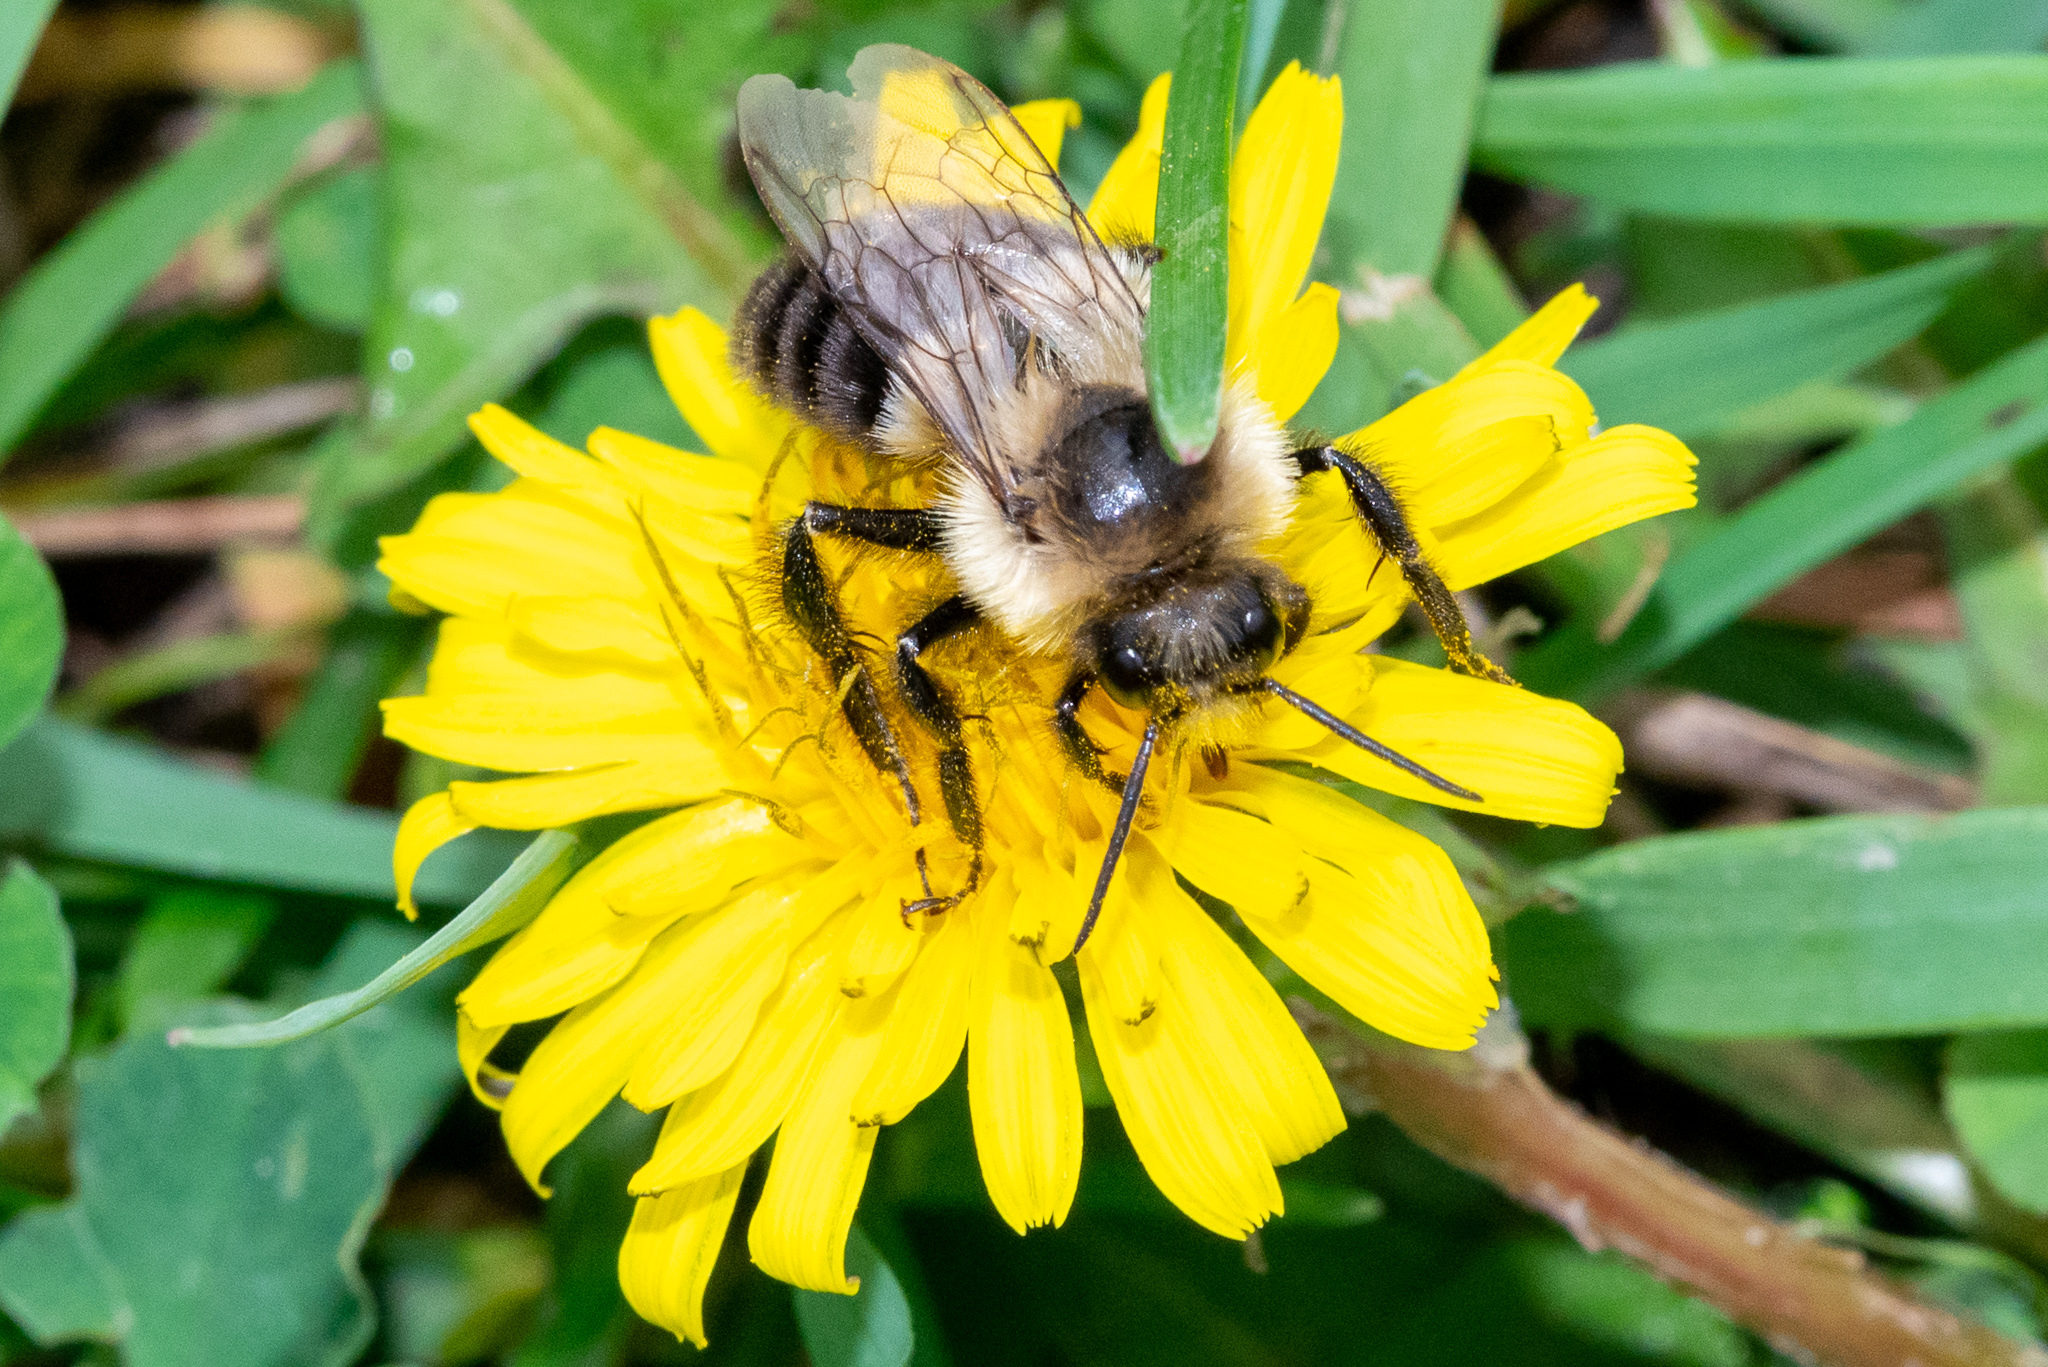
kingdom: Animalia
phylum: Arthropoda
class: Insecta
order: Hymenoptera
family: Apidae
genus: Bombus
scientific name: Bombus impatiens
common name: Common eastern bumble bee
